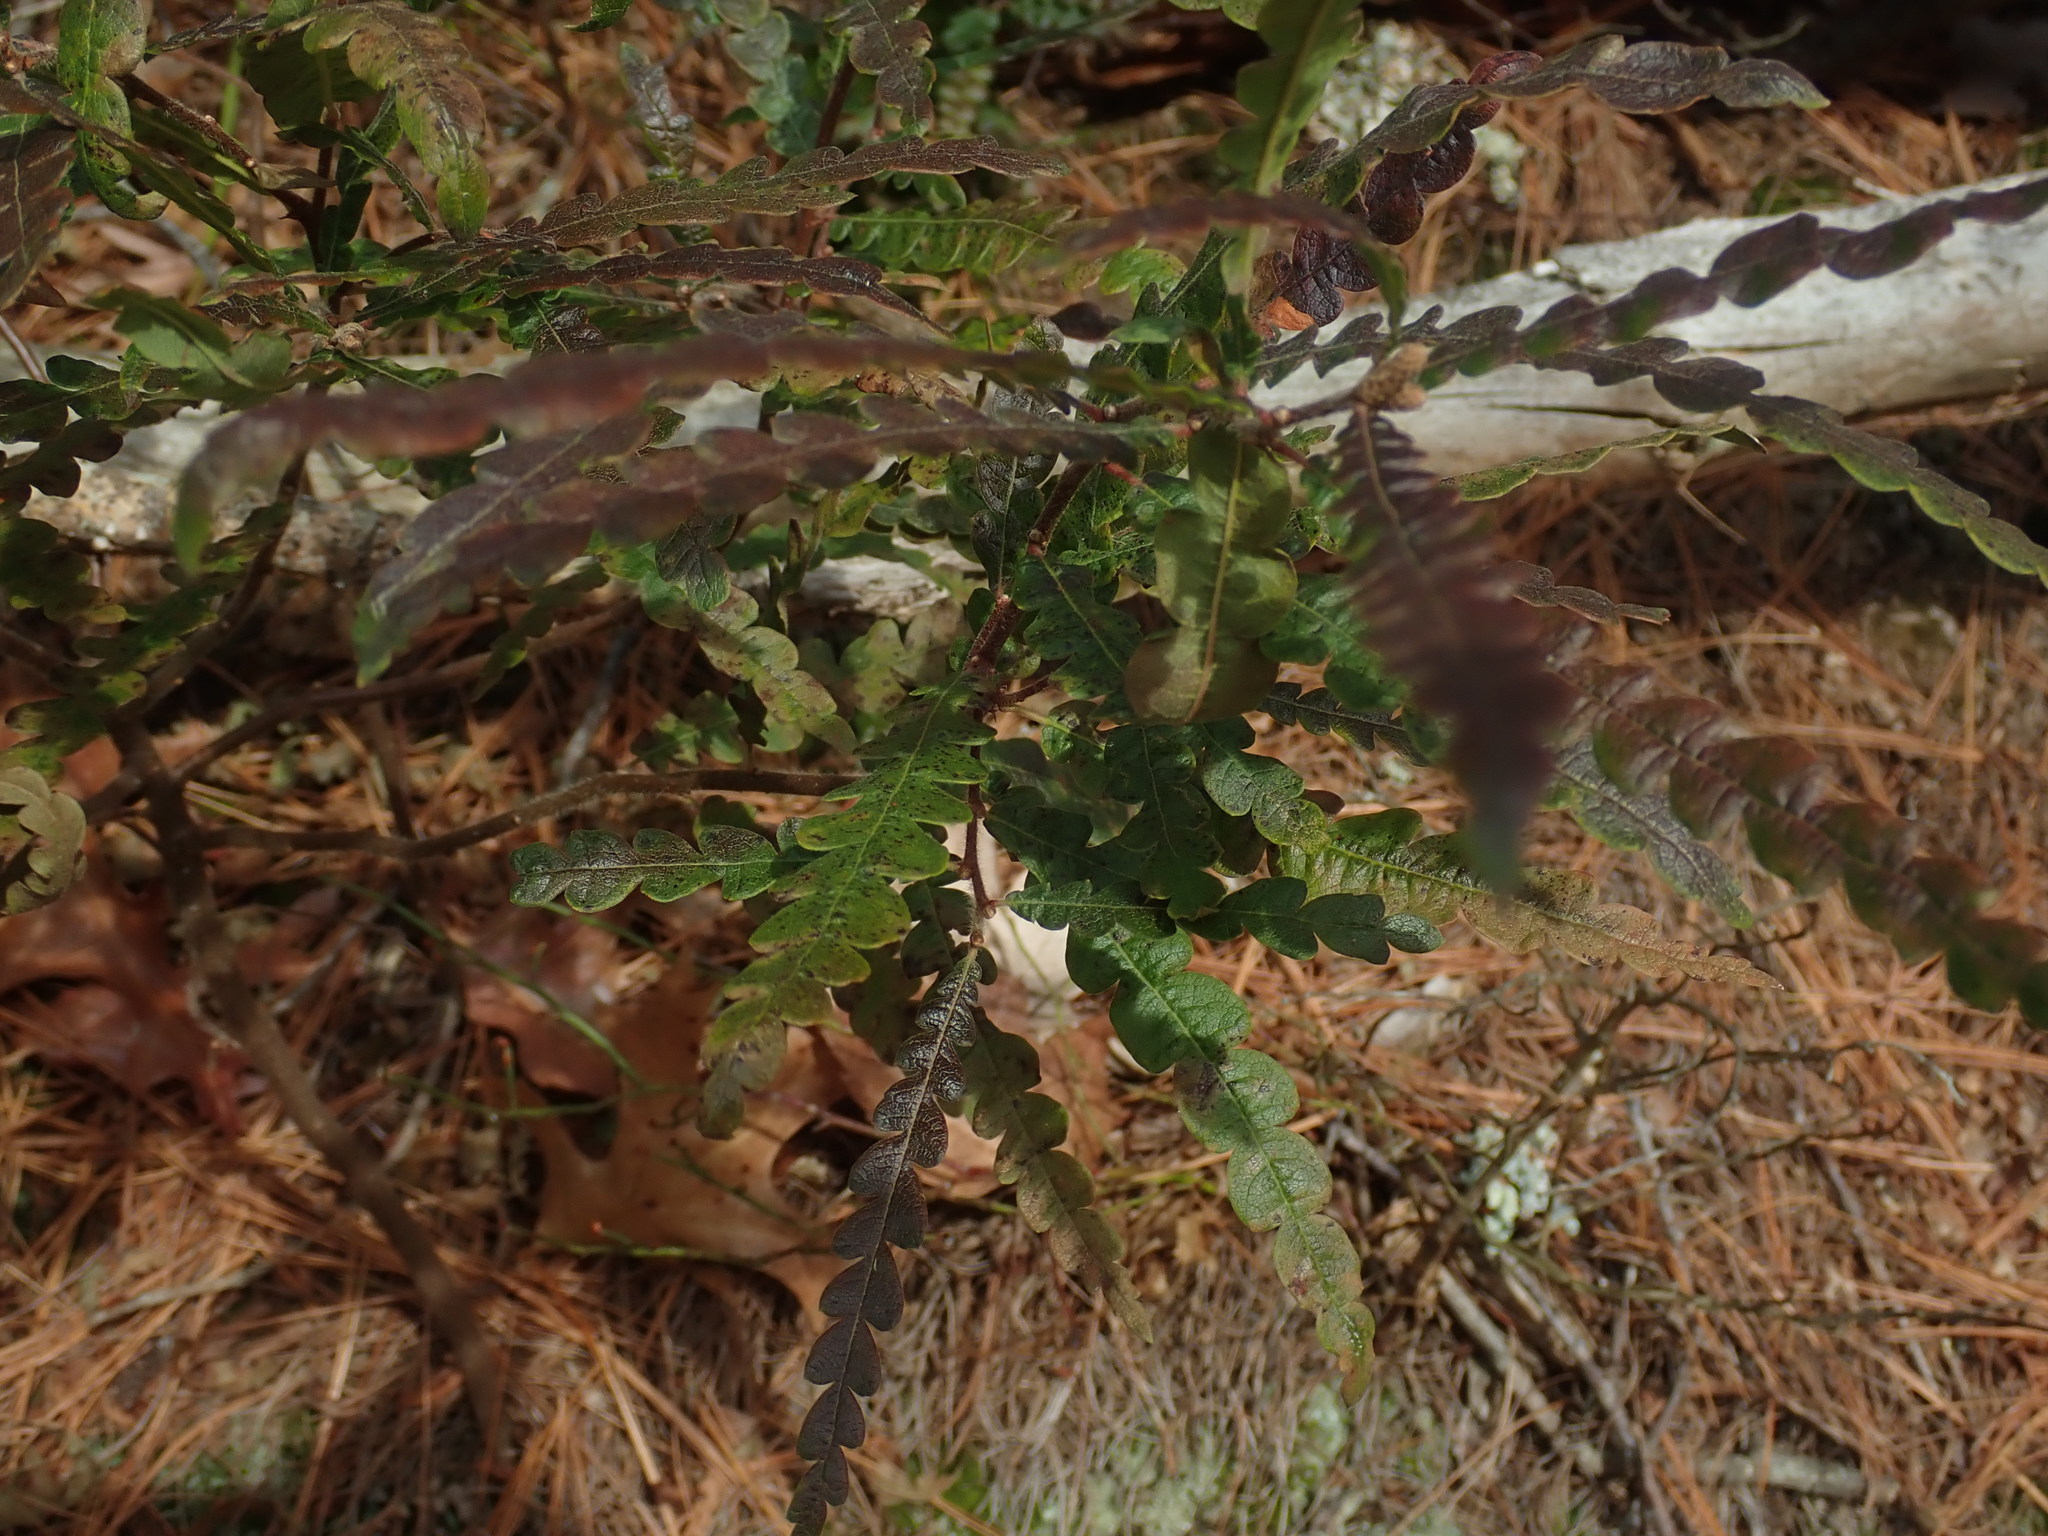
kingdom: Plantae
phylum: Tracheophyta
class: Magnoliopsida
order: Fagales
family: Myricaceae
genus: Comptonia
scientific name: Comptonia peregrina
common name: Sweet-fern
